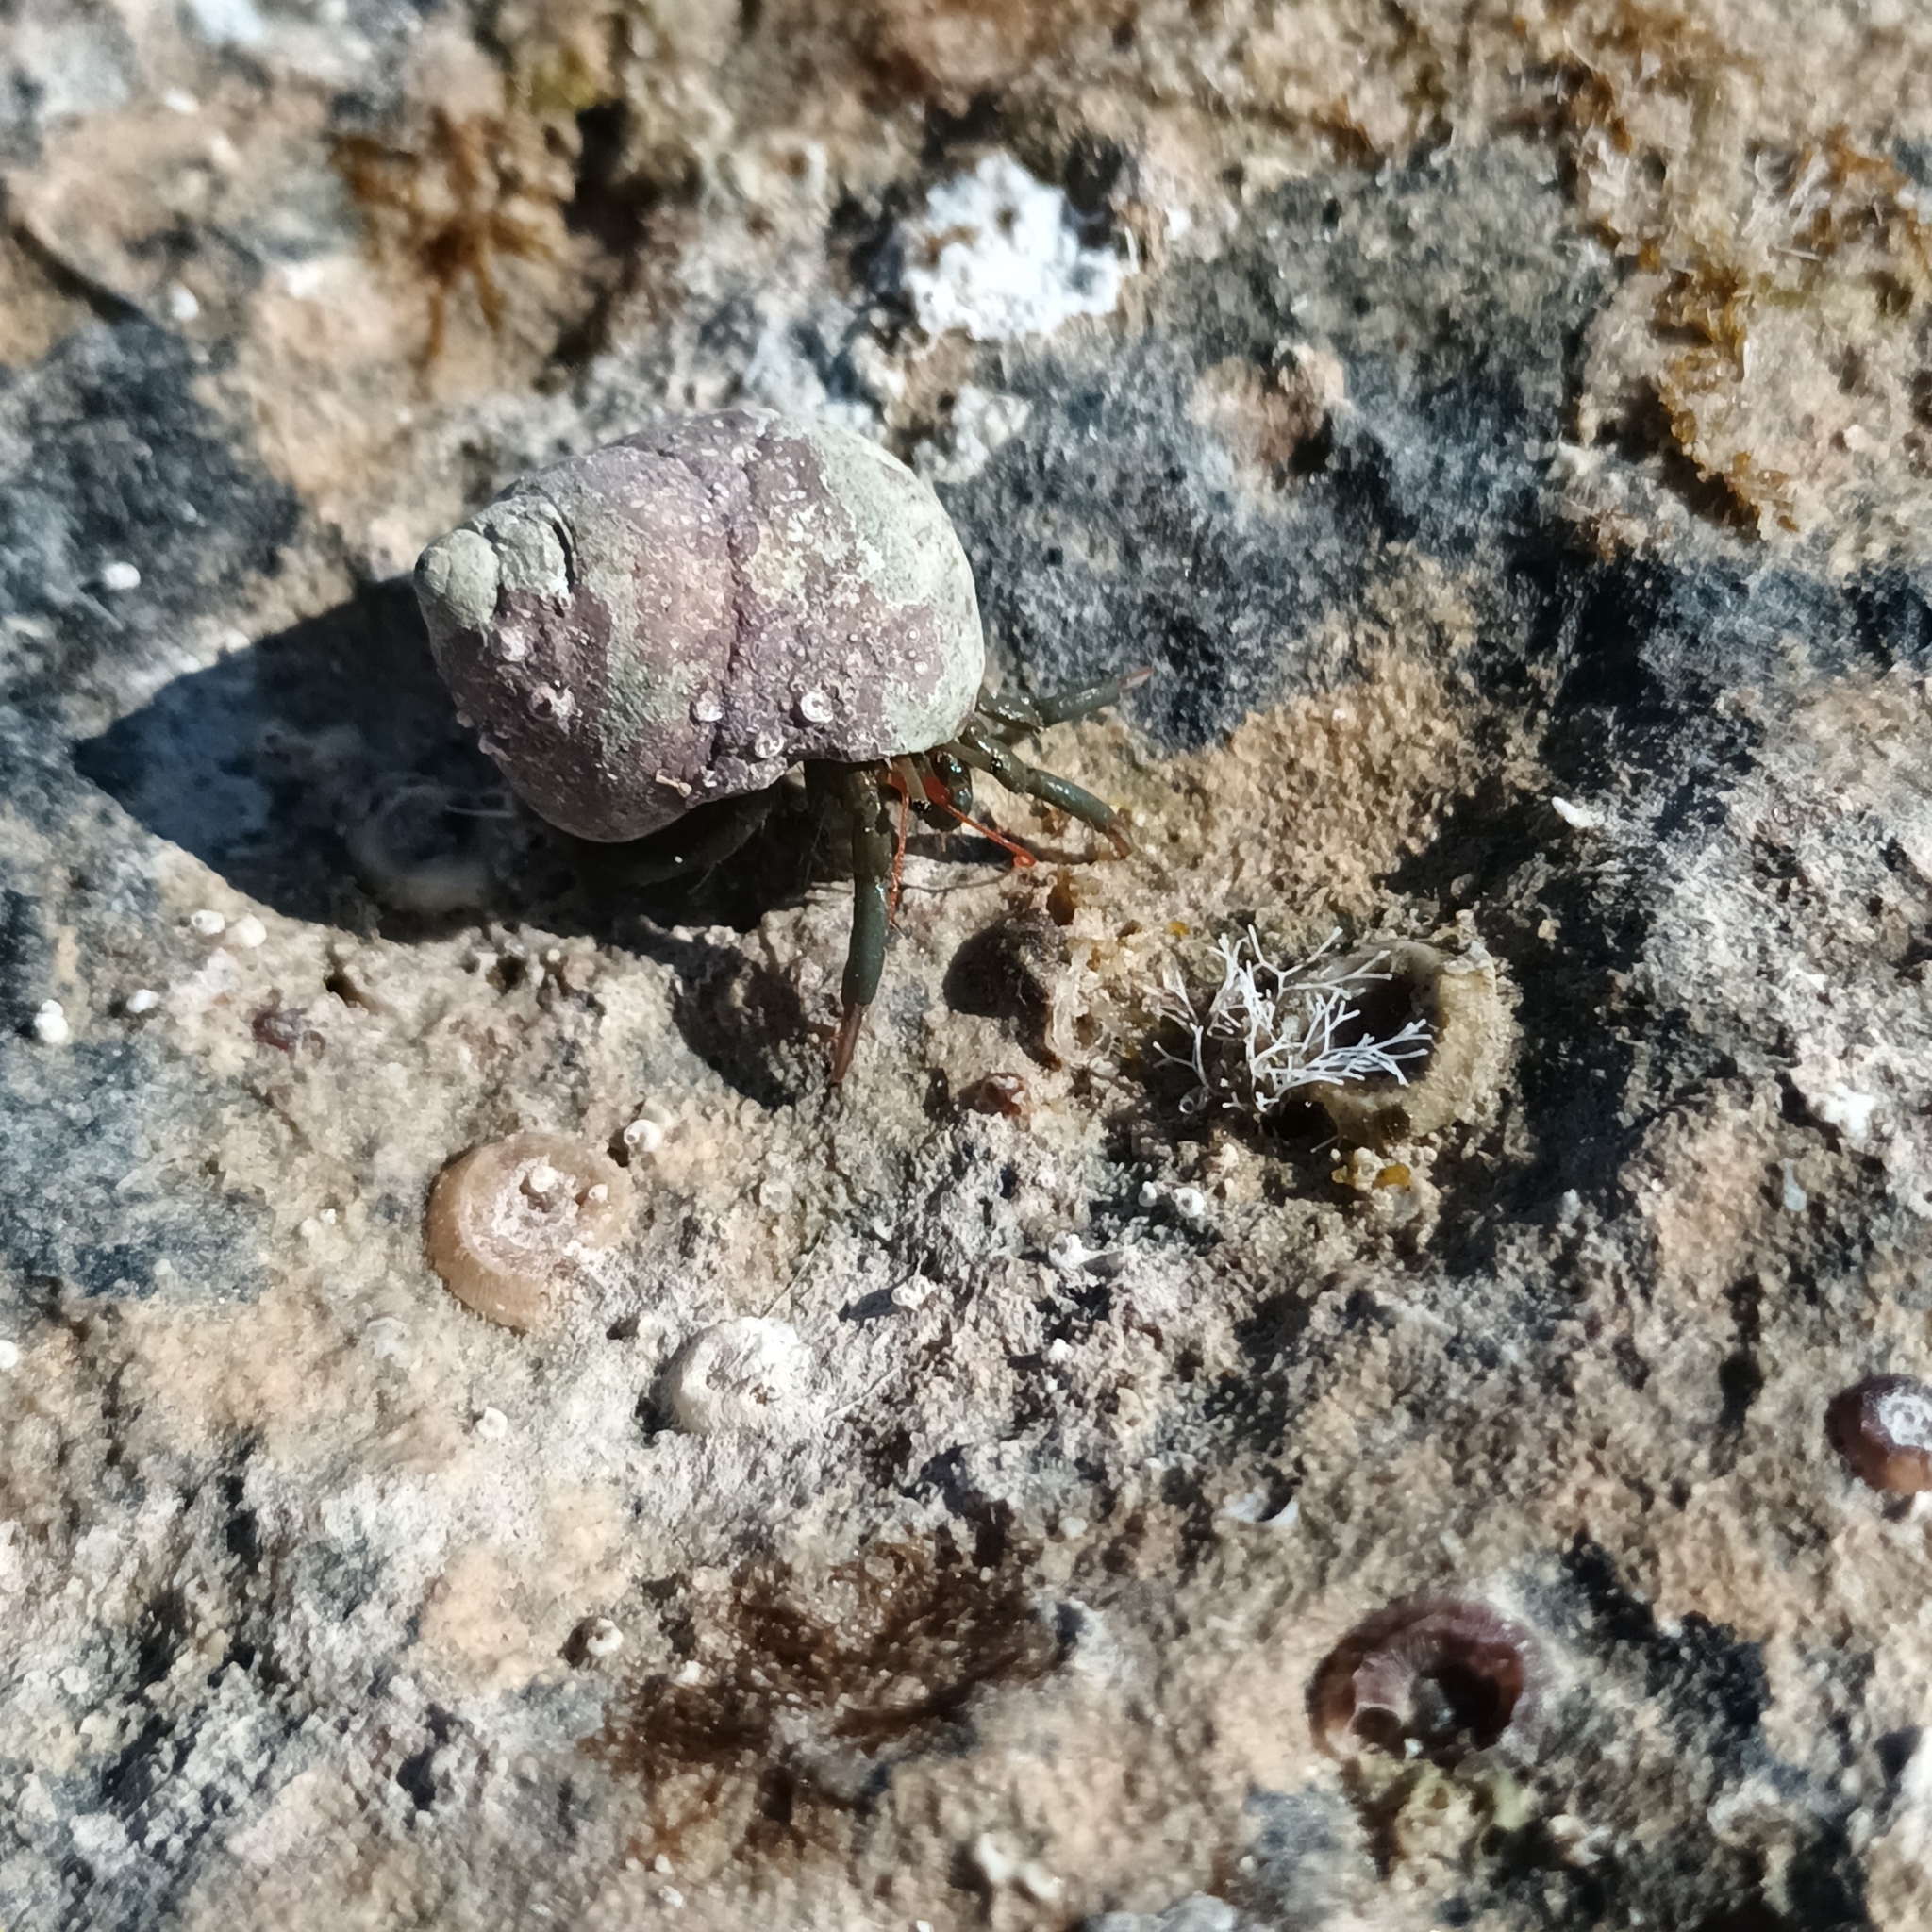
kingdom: Animalia
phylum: Arthropoda
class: Malacostraca
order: Decapoda
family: Diogenidae
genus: Clibanarius
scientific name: Clibanarius erythropus
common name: Hermit crab
